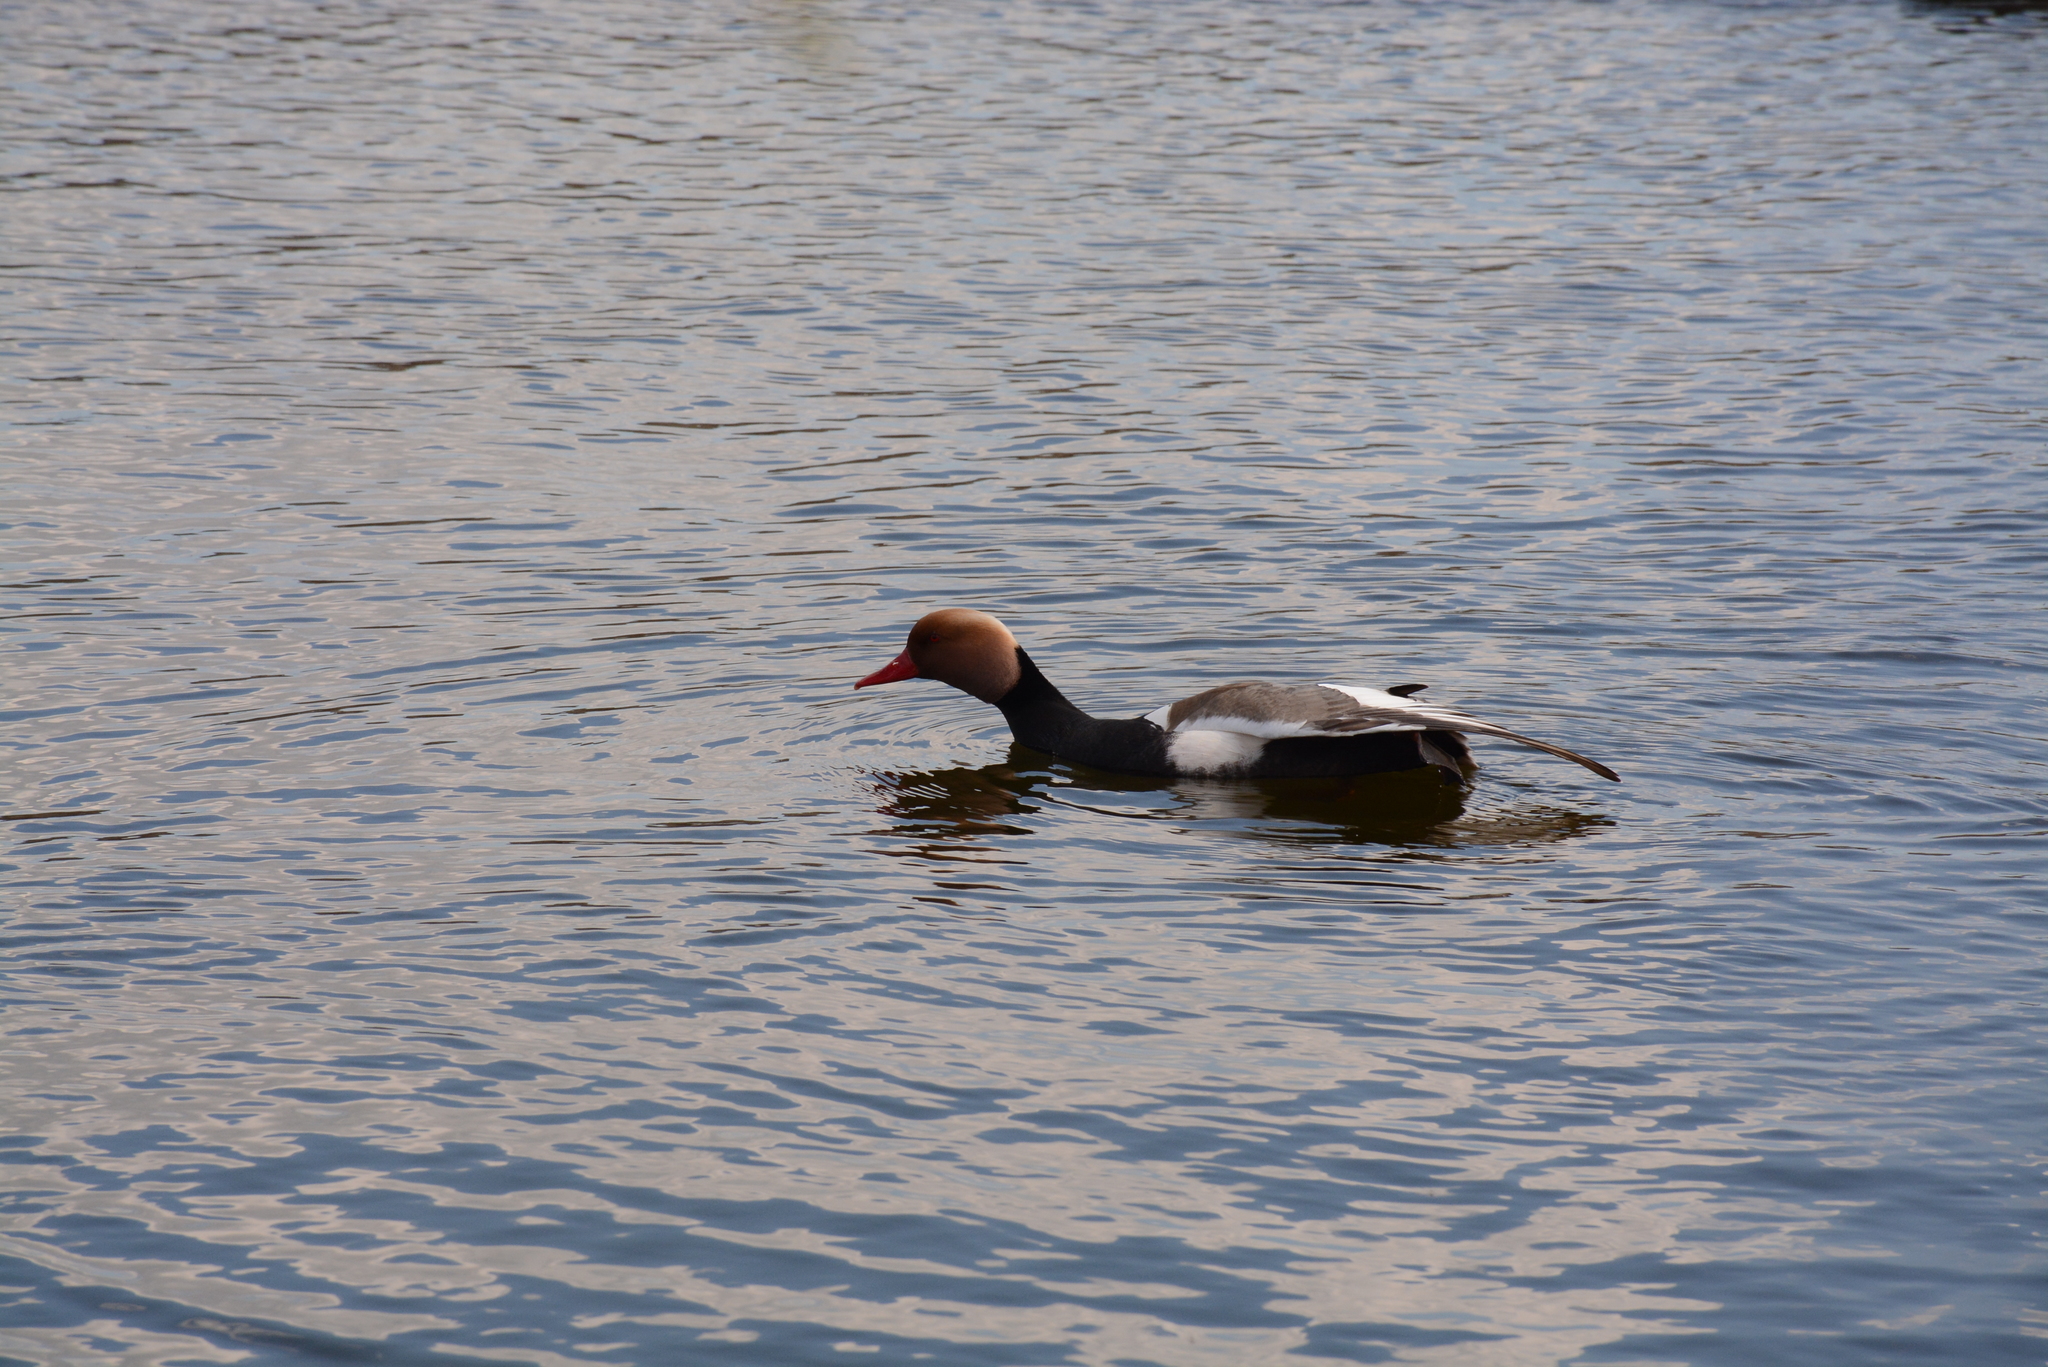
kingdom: Animalia
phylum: Chordata
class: Aves
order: Anseriformes
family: Anatidae
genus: Netta
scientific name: Netta rufina
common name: Red-crested pochard
